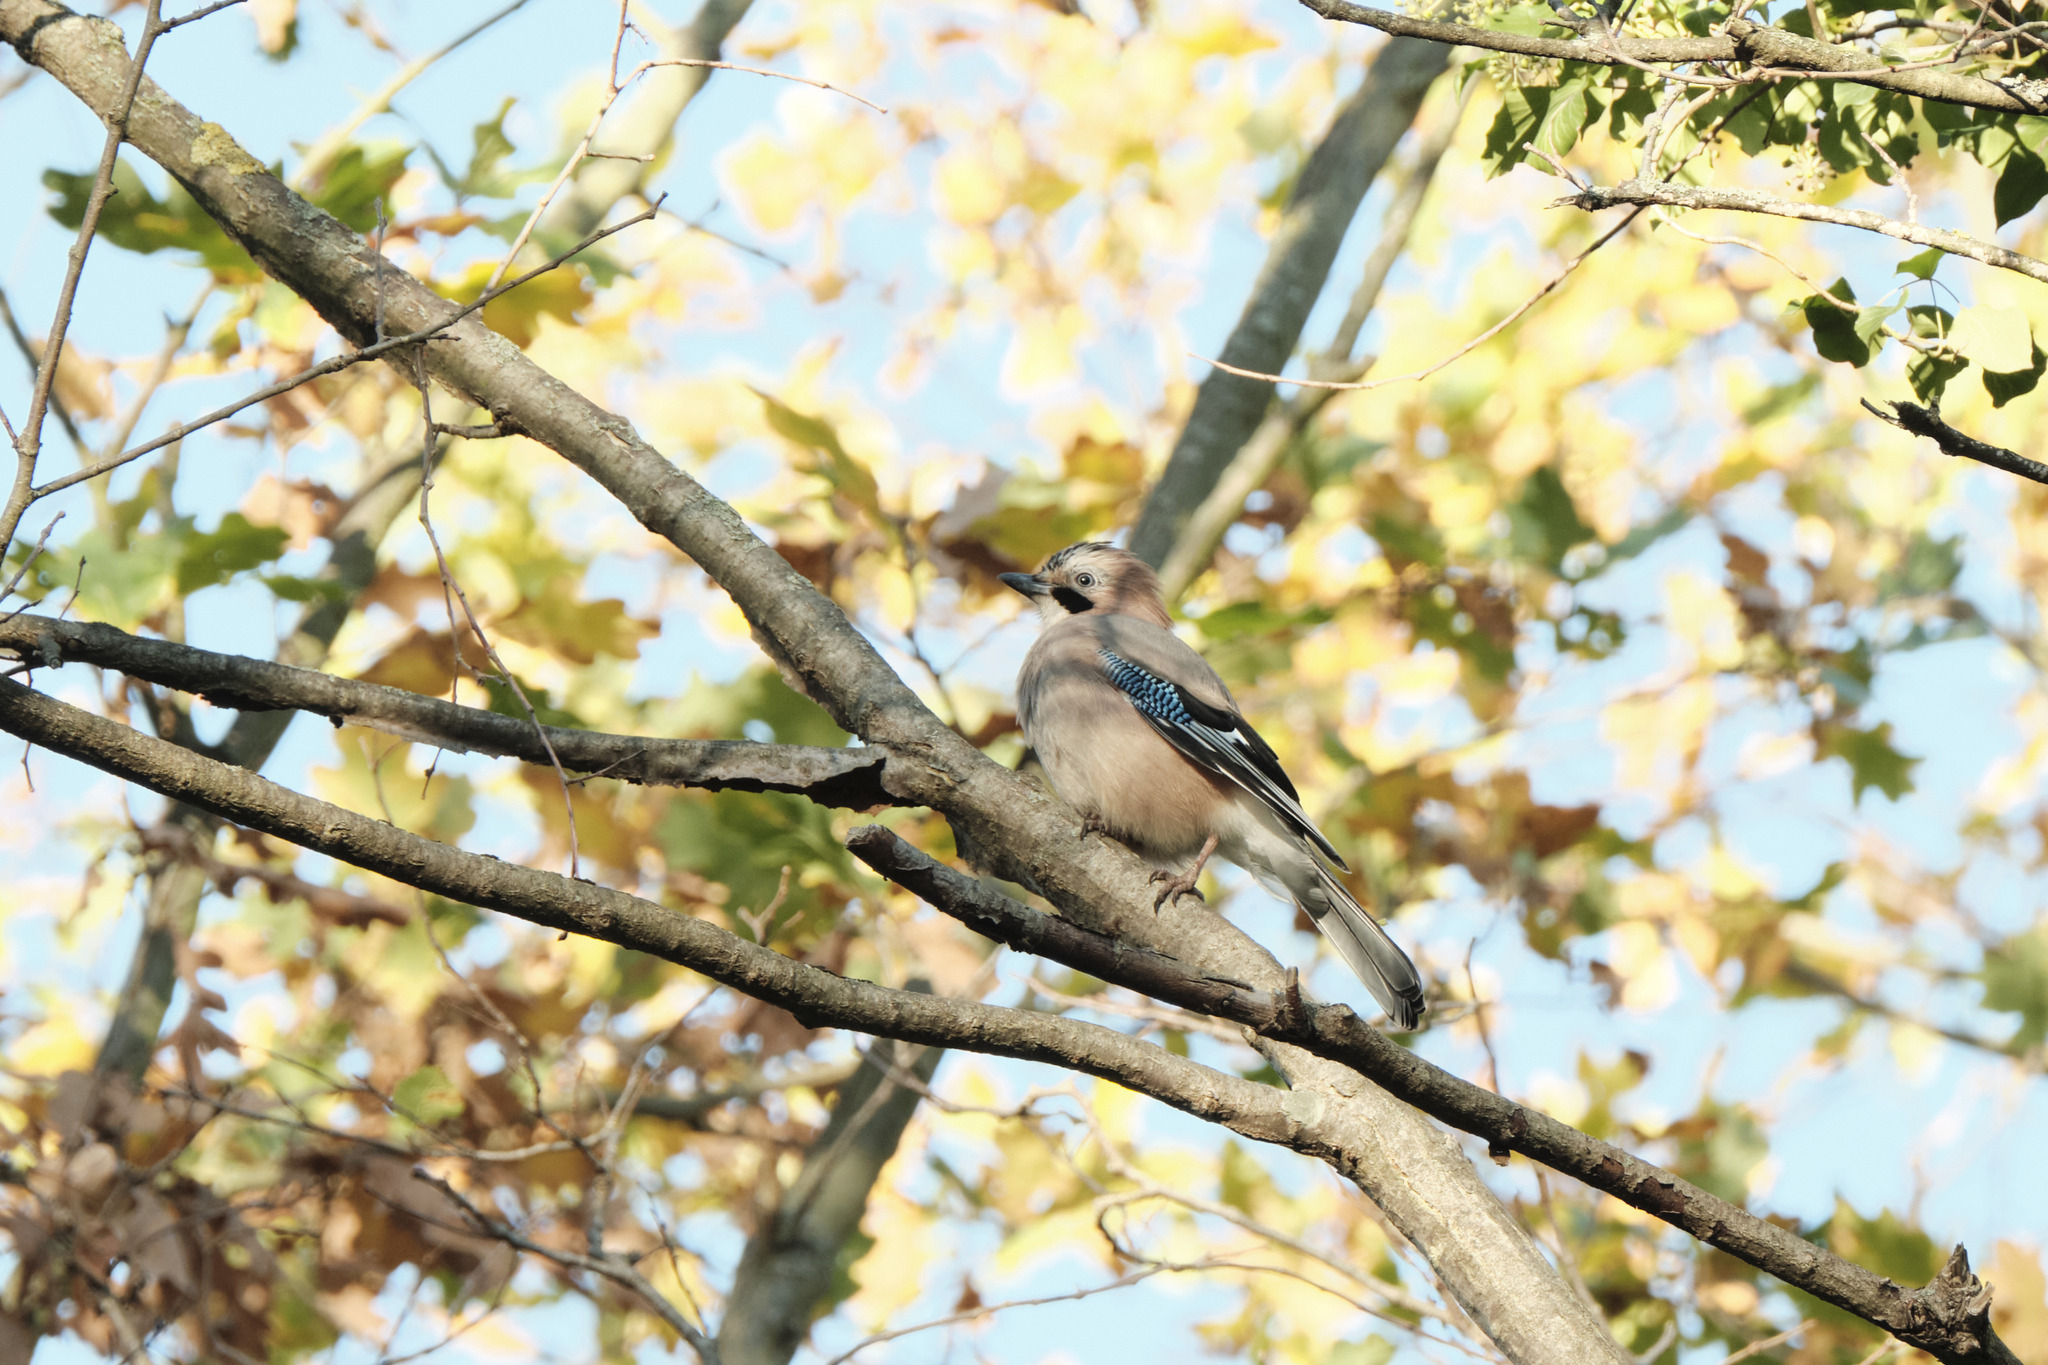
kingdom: Animalia
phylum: Chordata
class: Aves
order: Passeriformes
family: Corvidae
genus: Garrulus
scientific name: Garrulus glandarius
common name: Eurasian jay
